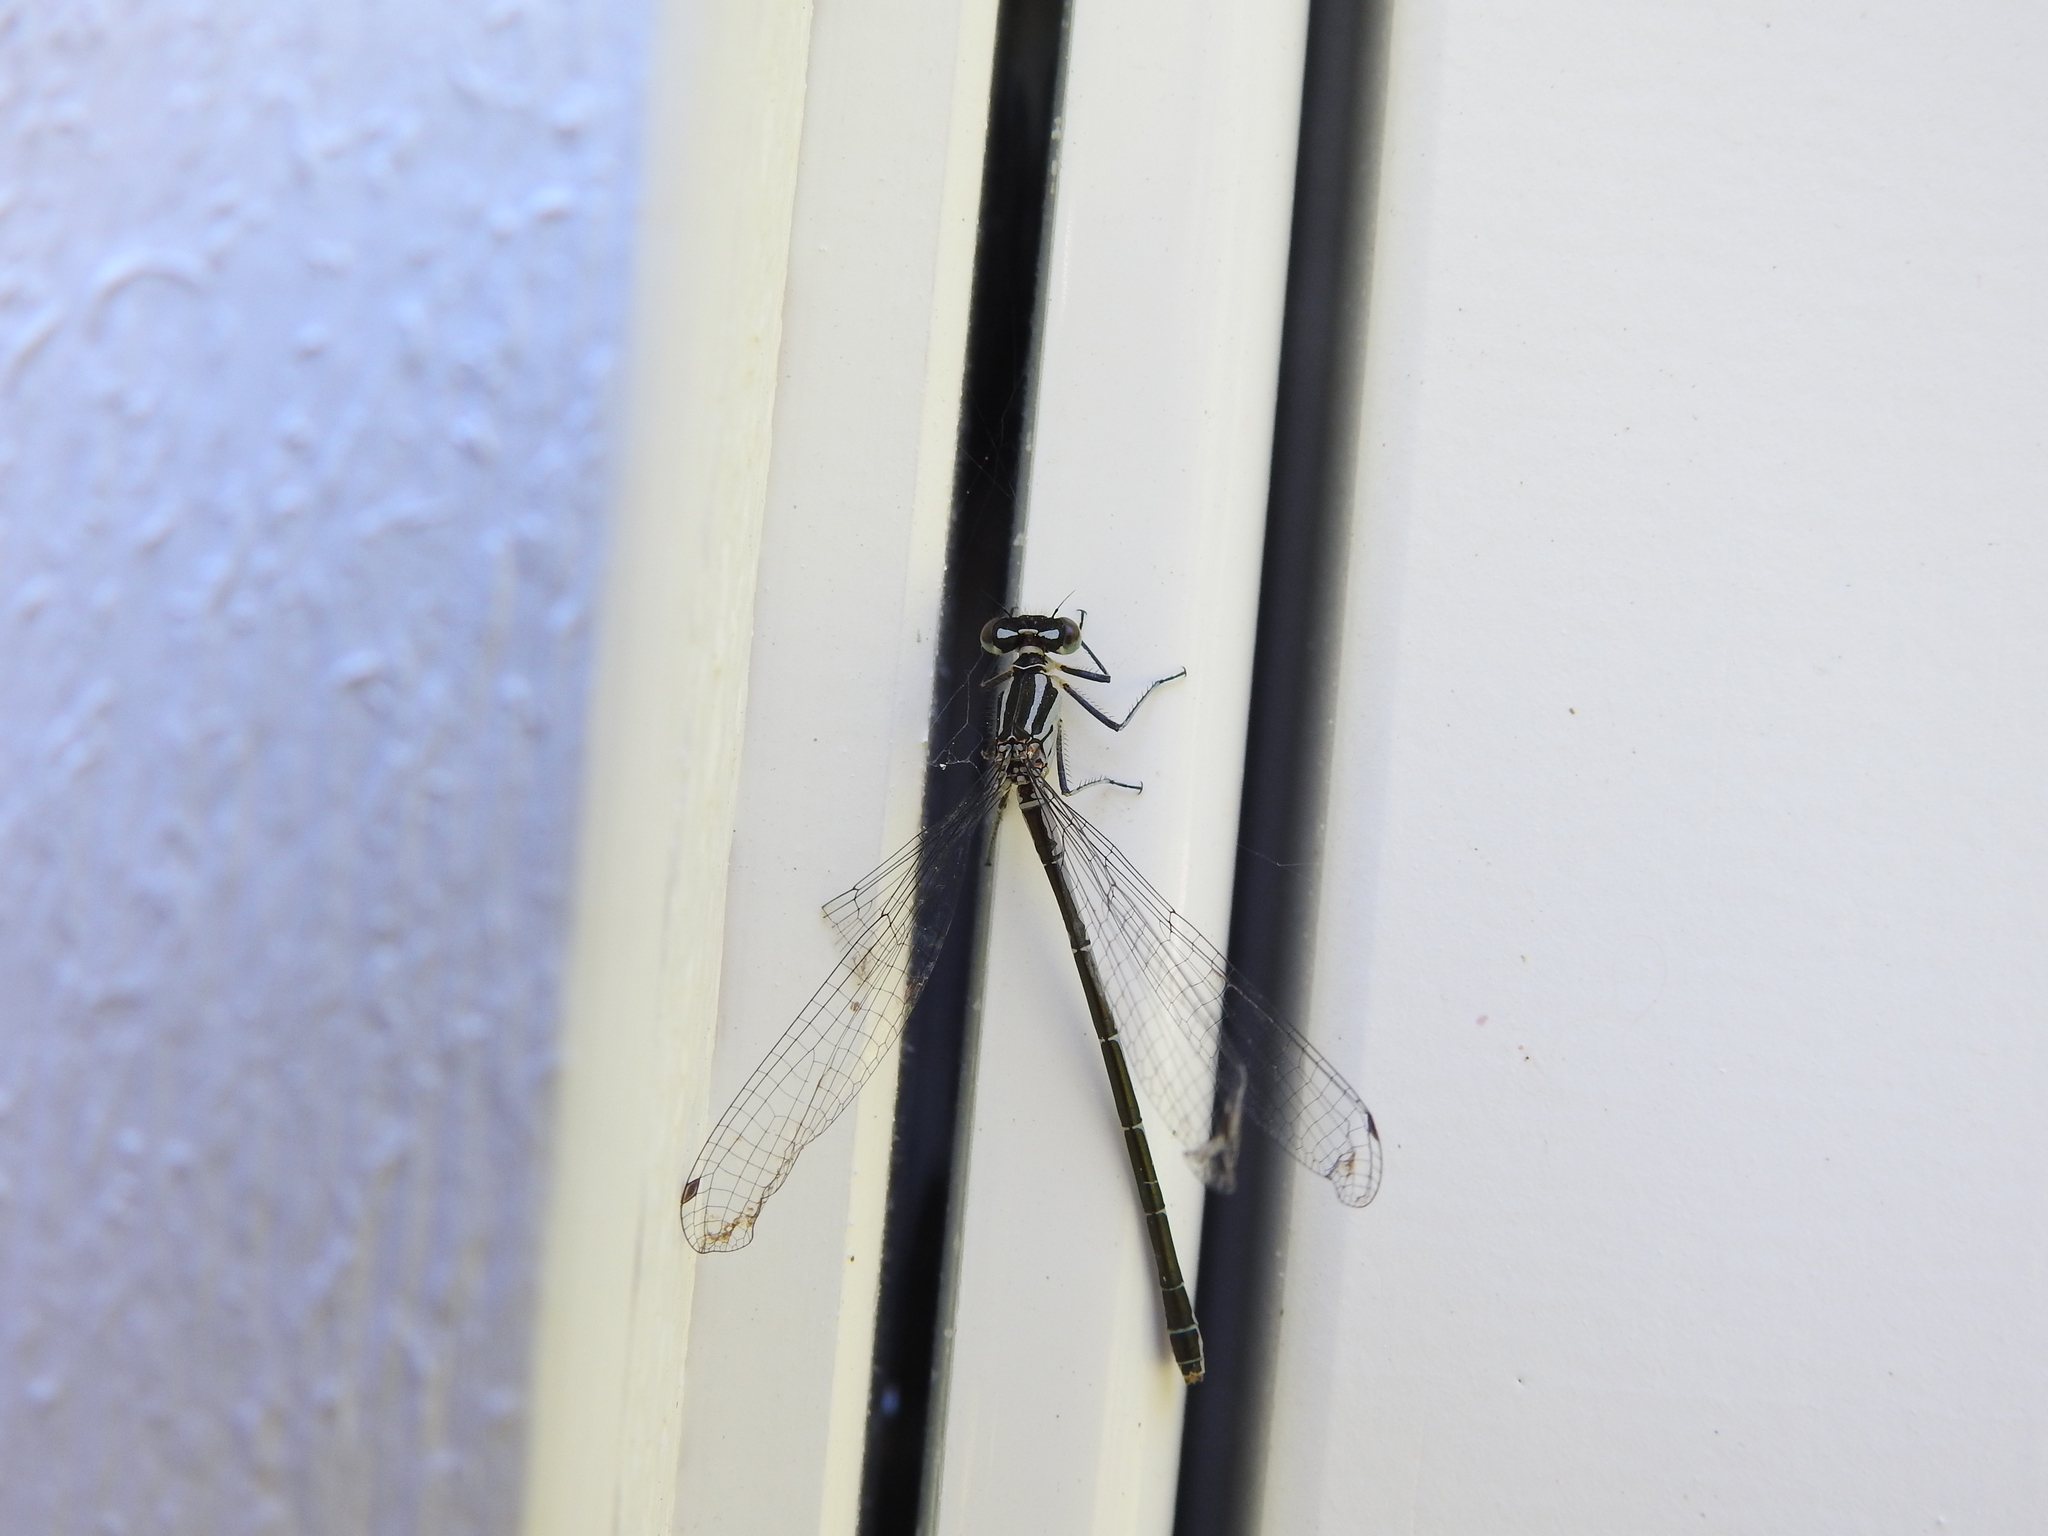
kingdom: Animalia
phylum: Arthropoda
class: Insecta
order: Odonata
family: Coenagrionidae
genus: Coenagrion
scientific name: Coenagrion hastulatum
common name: Spearhead bluet
